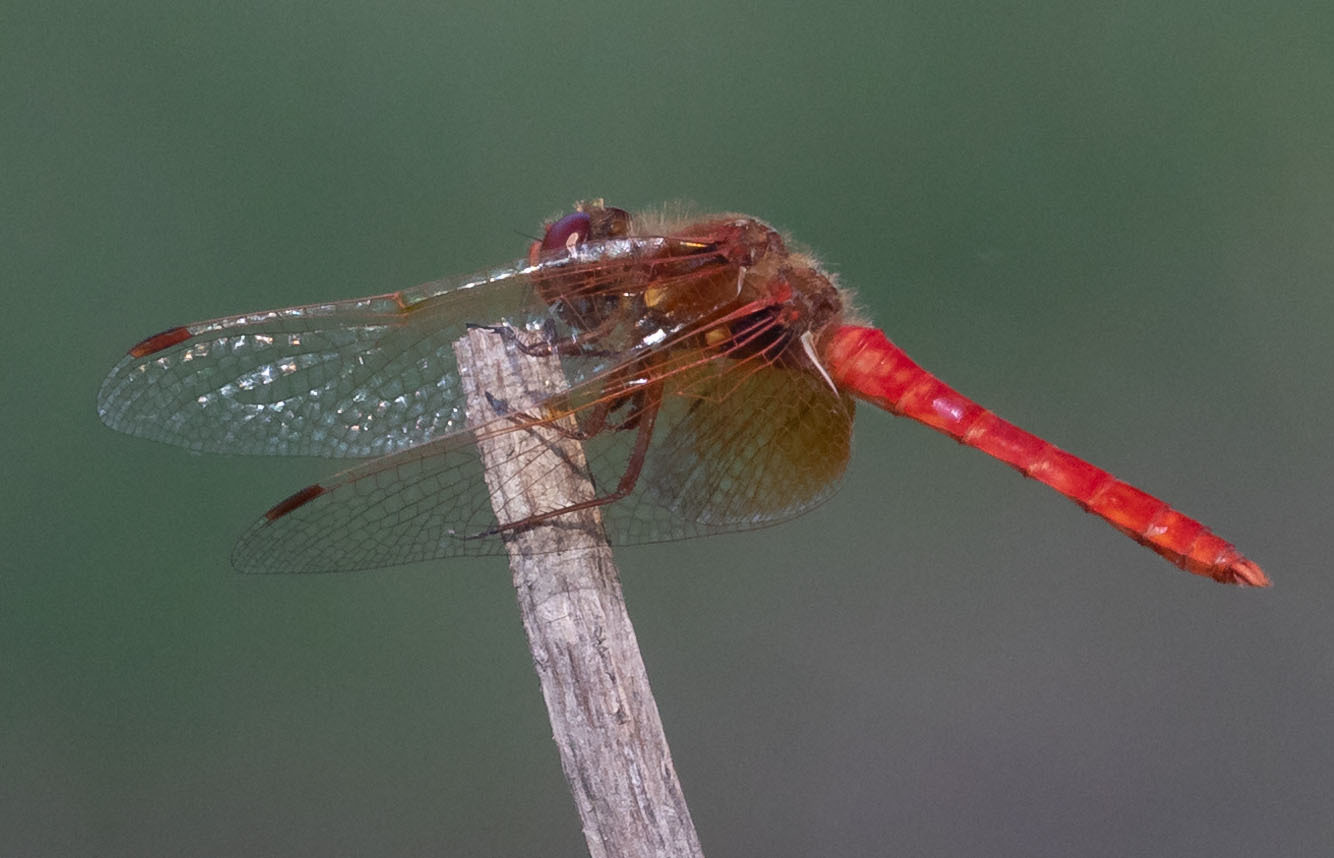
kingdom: Animalia
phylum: Arthropoda
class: Insecta
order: Odonata
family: Libellulidae
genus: Sympetrum
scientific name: Sympetrum illotum
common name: Cardinal meadowhawk
